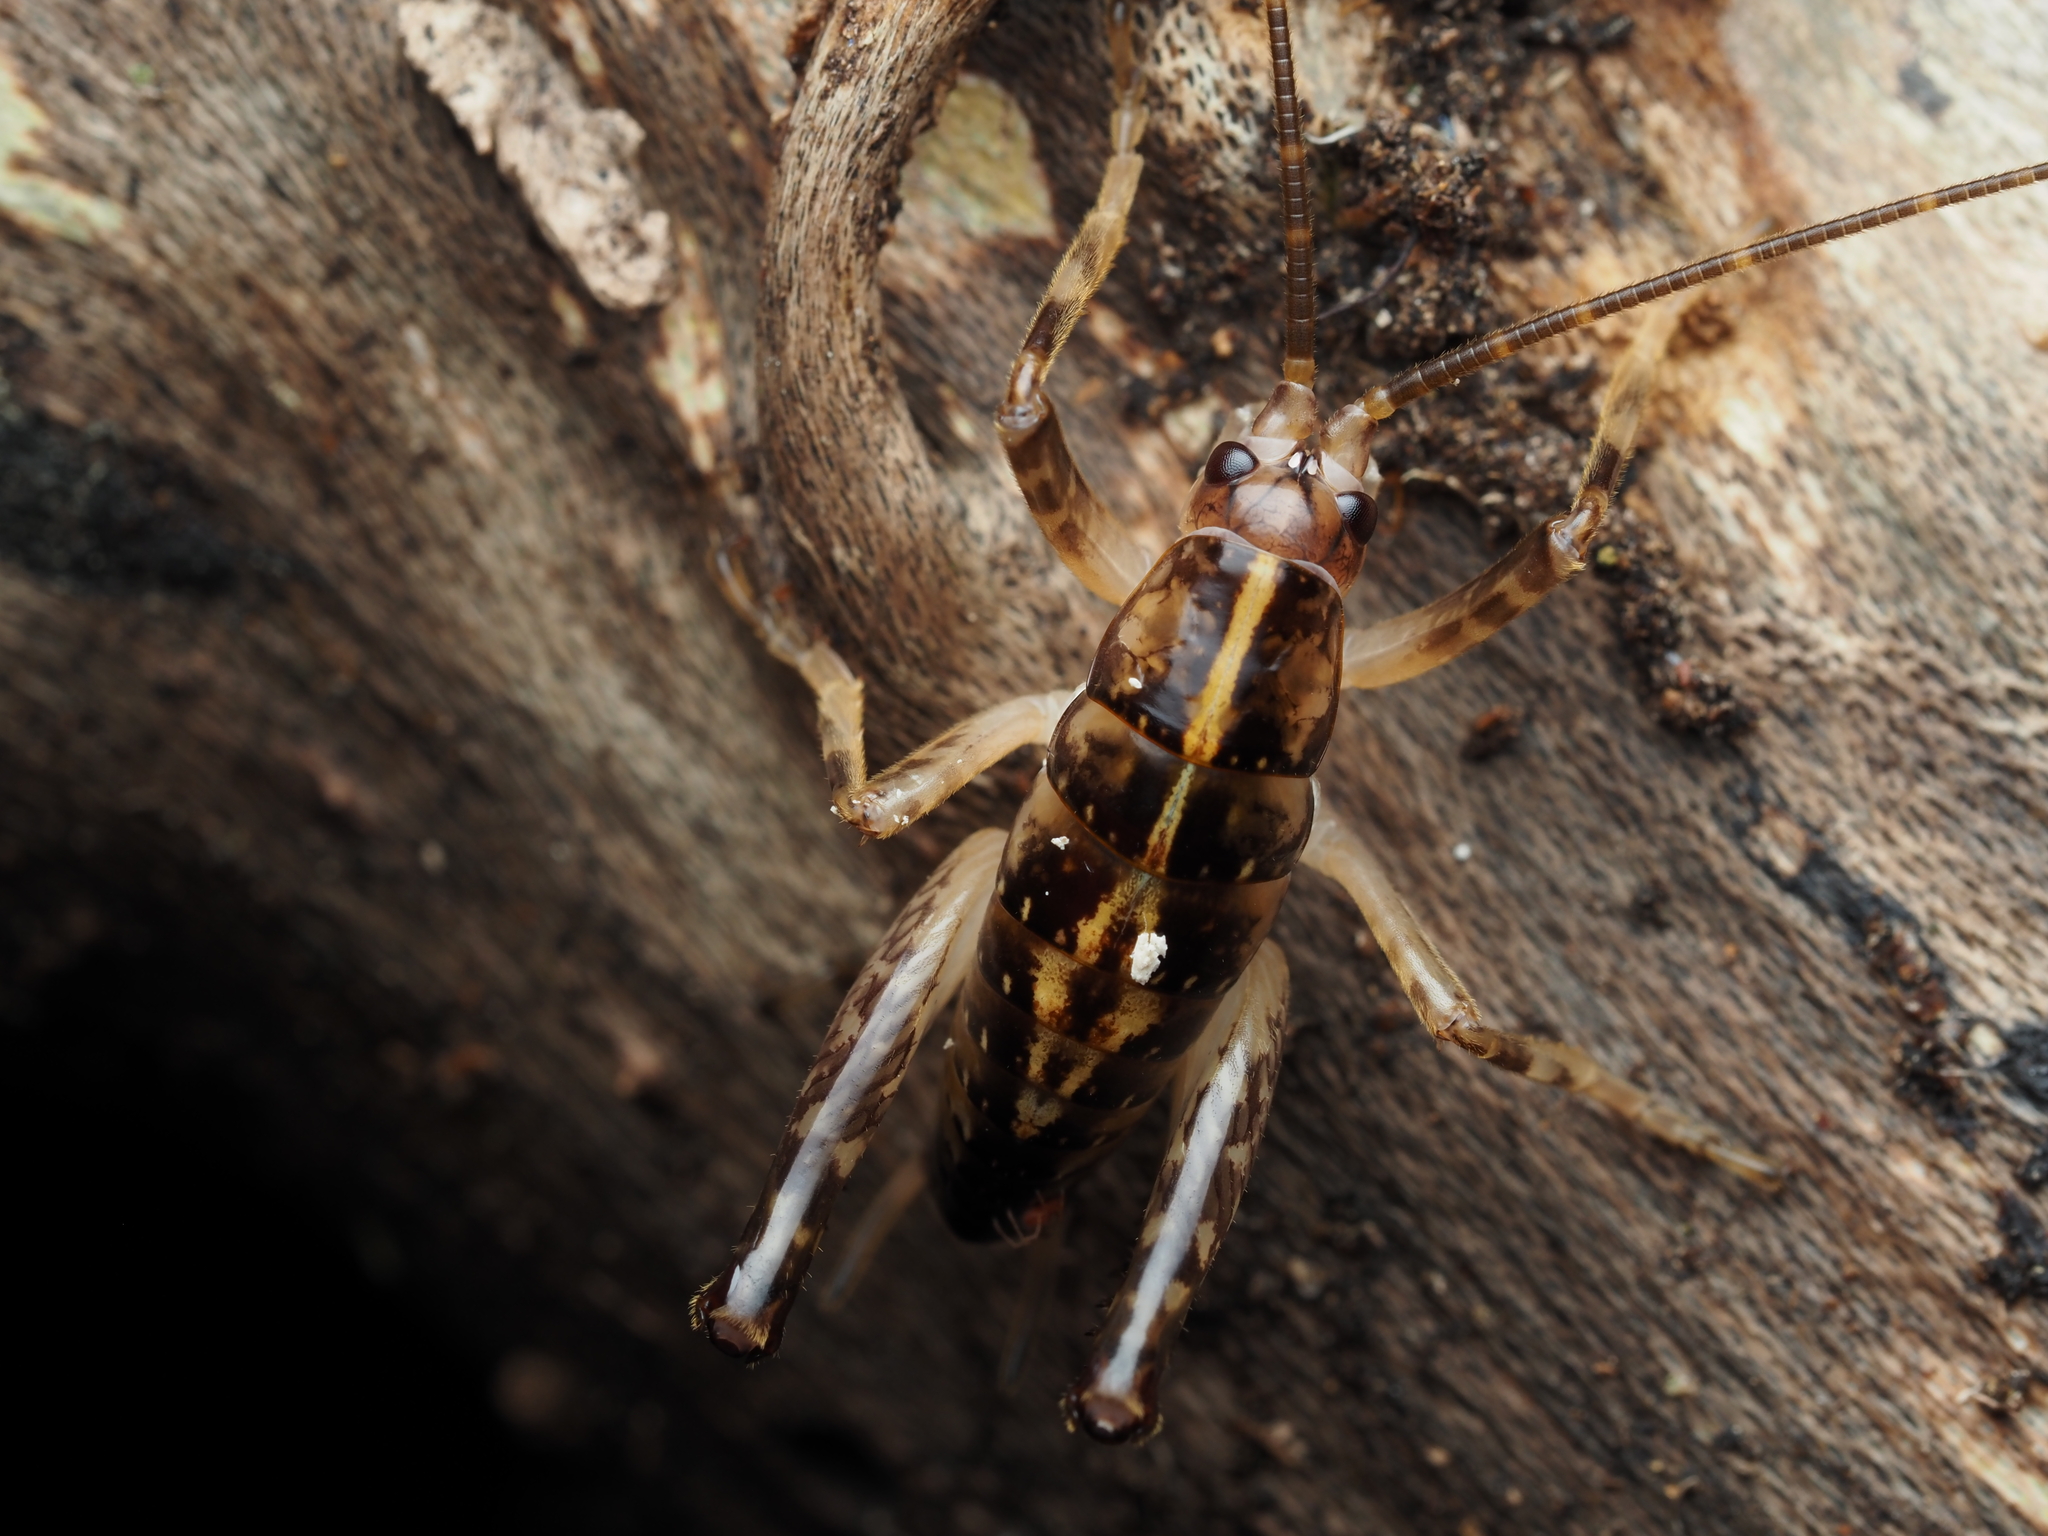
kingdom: Animalia
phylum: Arthropoda
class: Insecta
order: Orthoptera
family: Rhaphidophoridae
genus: Talitropsis
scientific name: Talitropsis sedilloti
